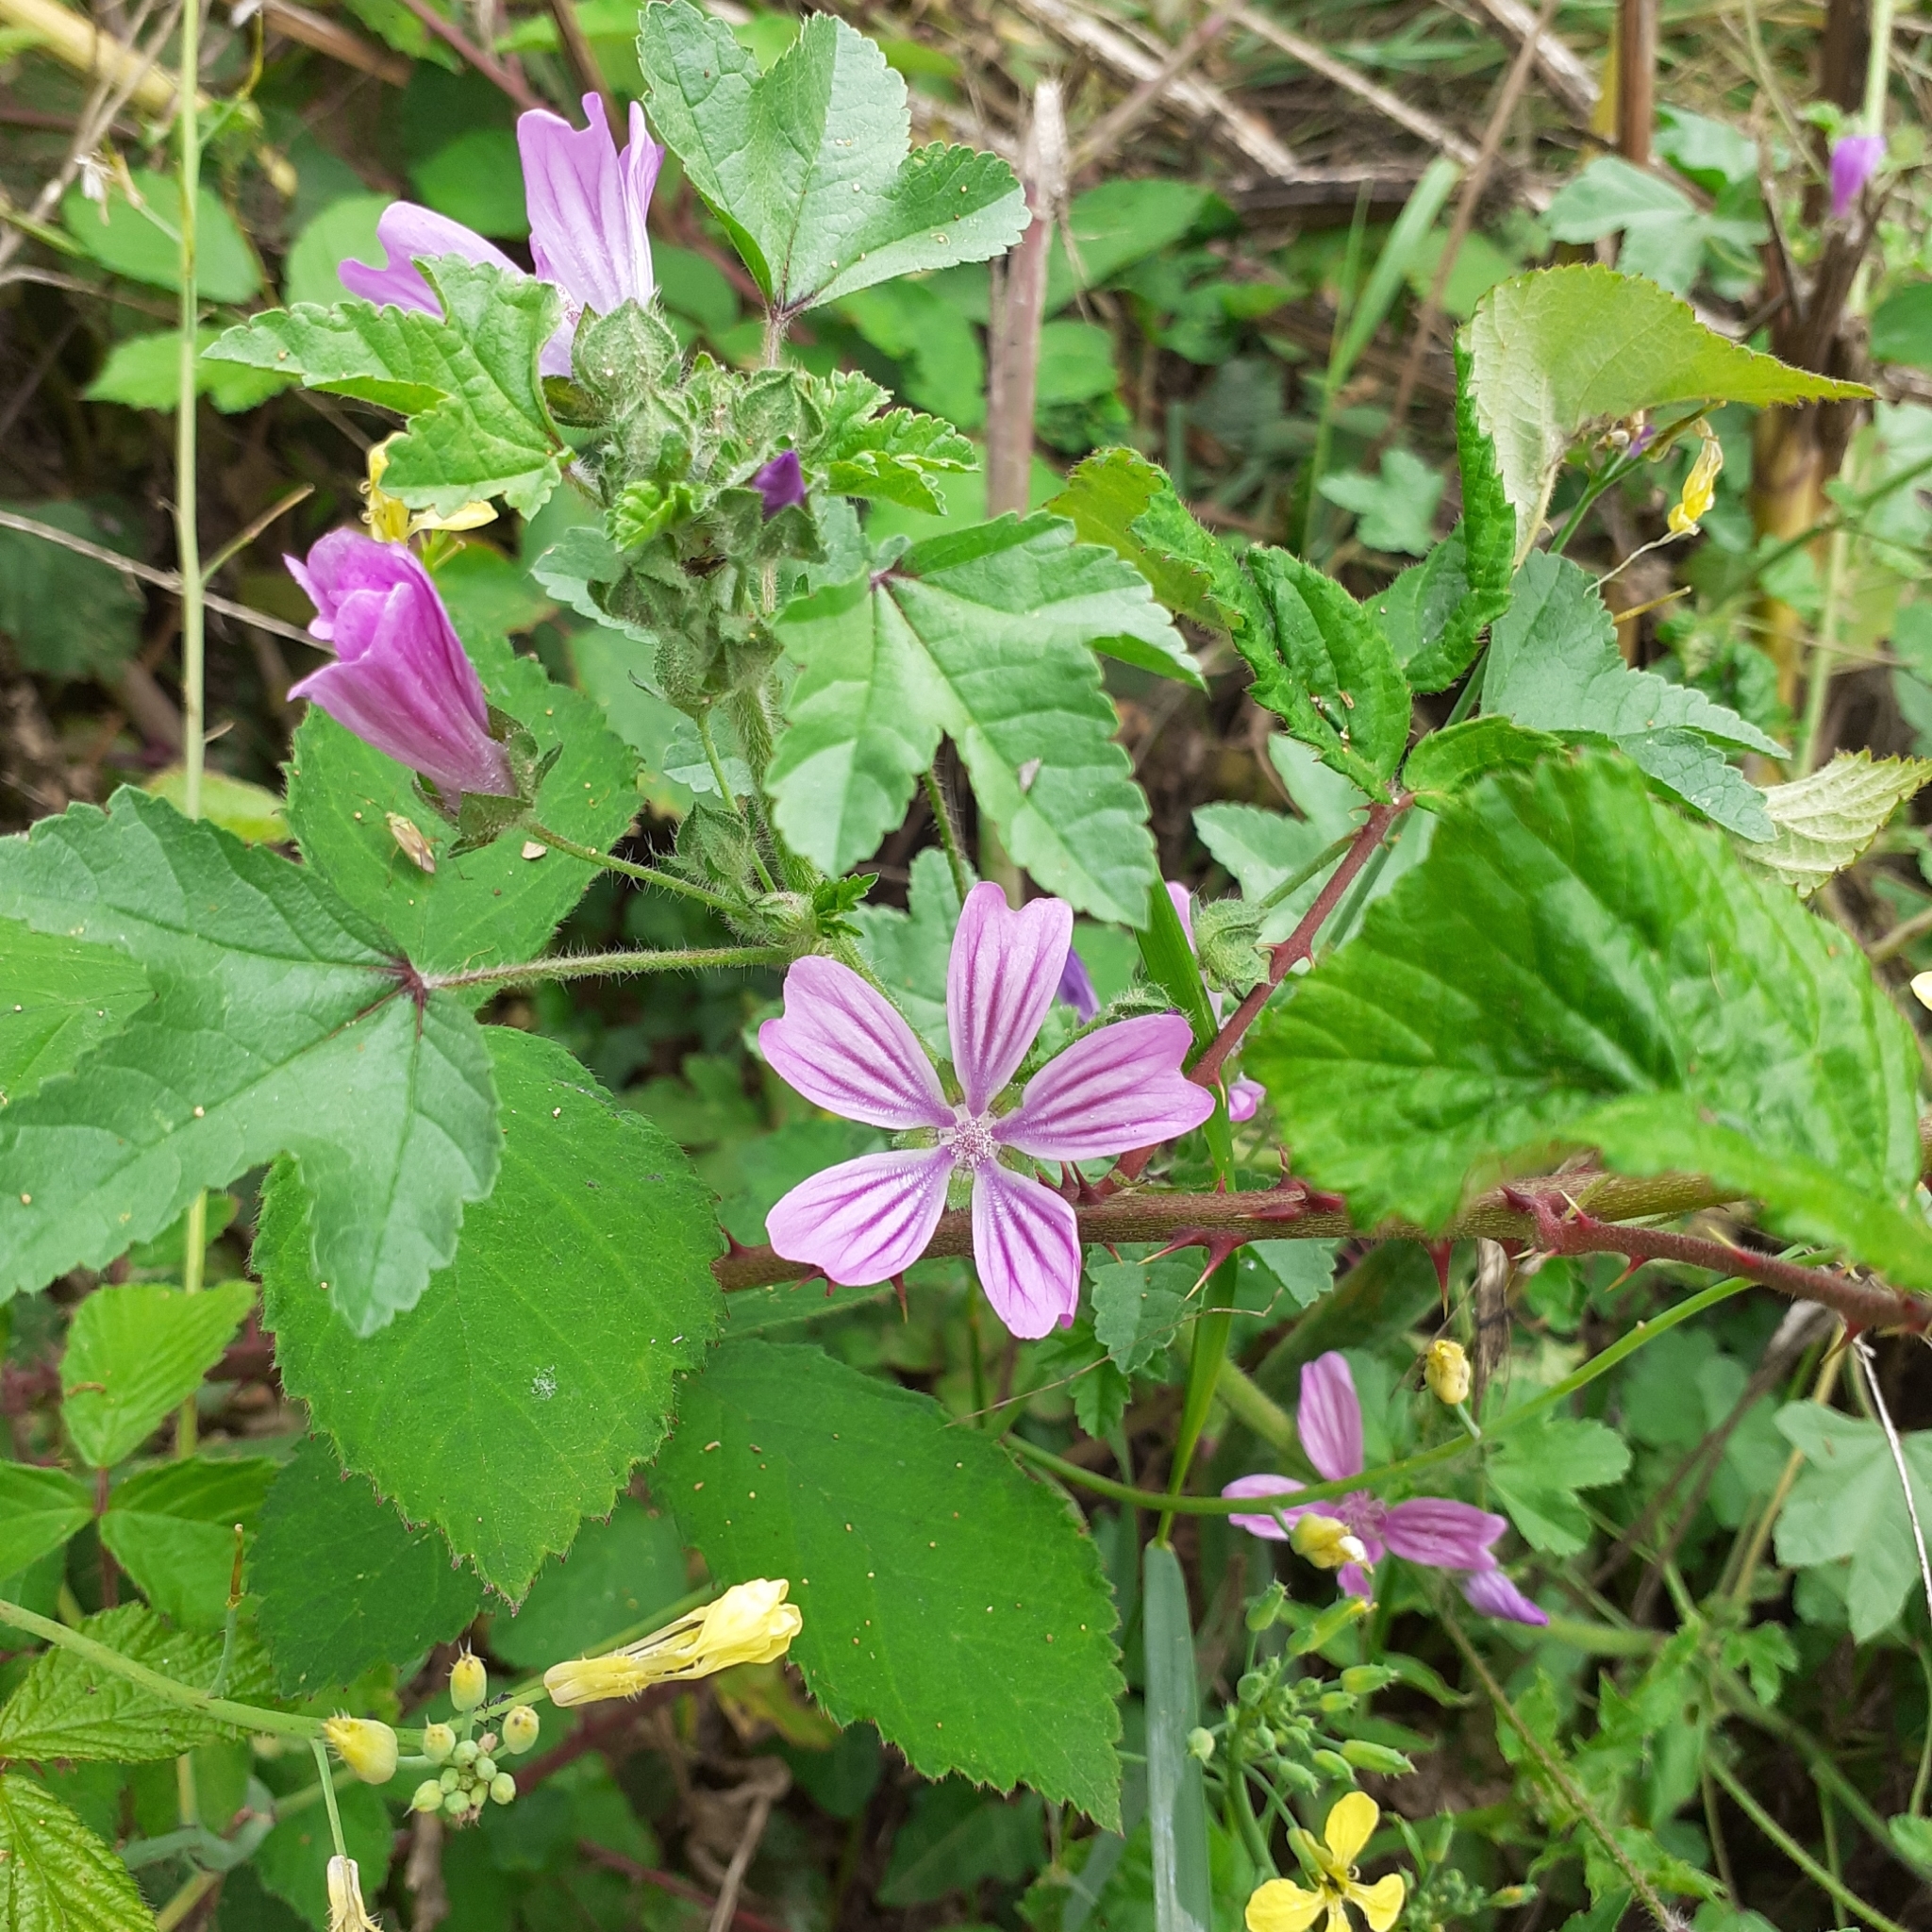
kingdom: Plantae
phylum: Tracheophyta
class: Magnoliopsida
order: Malvales
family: Malvaceae
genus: Malva
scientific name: Malva sylvestris
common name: Common mallow
